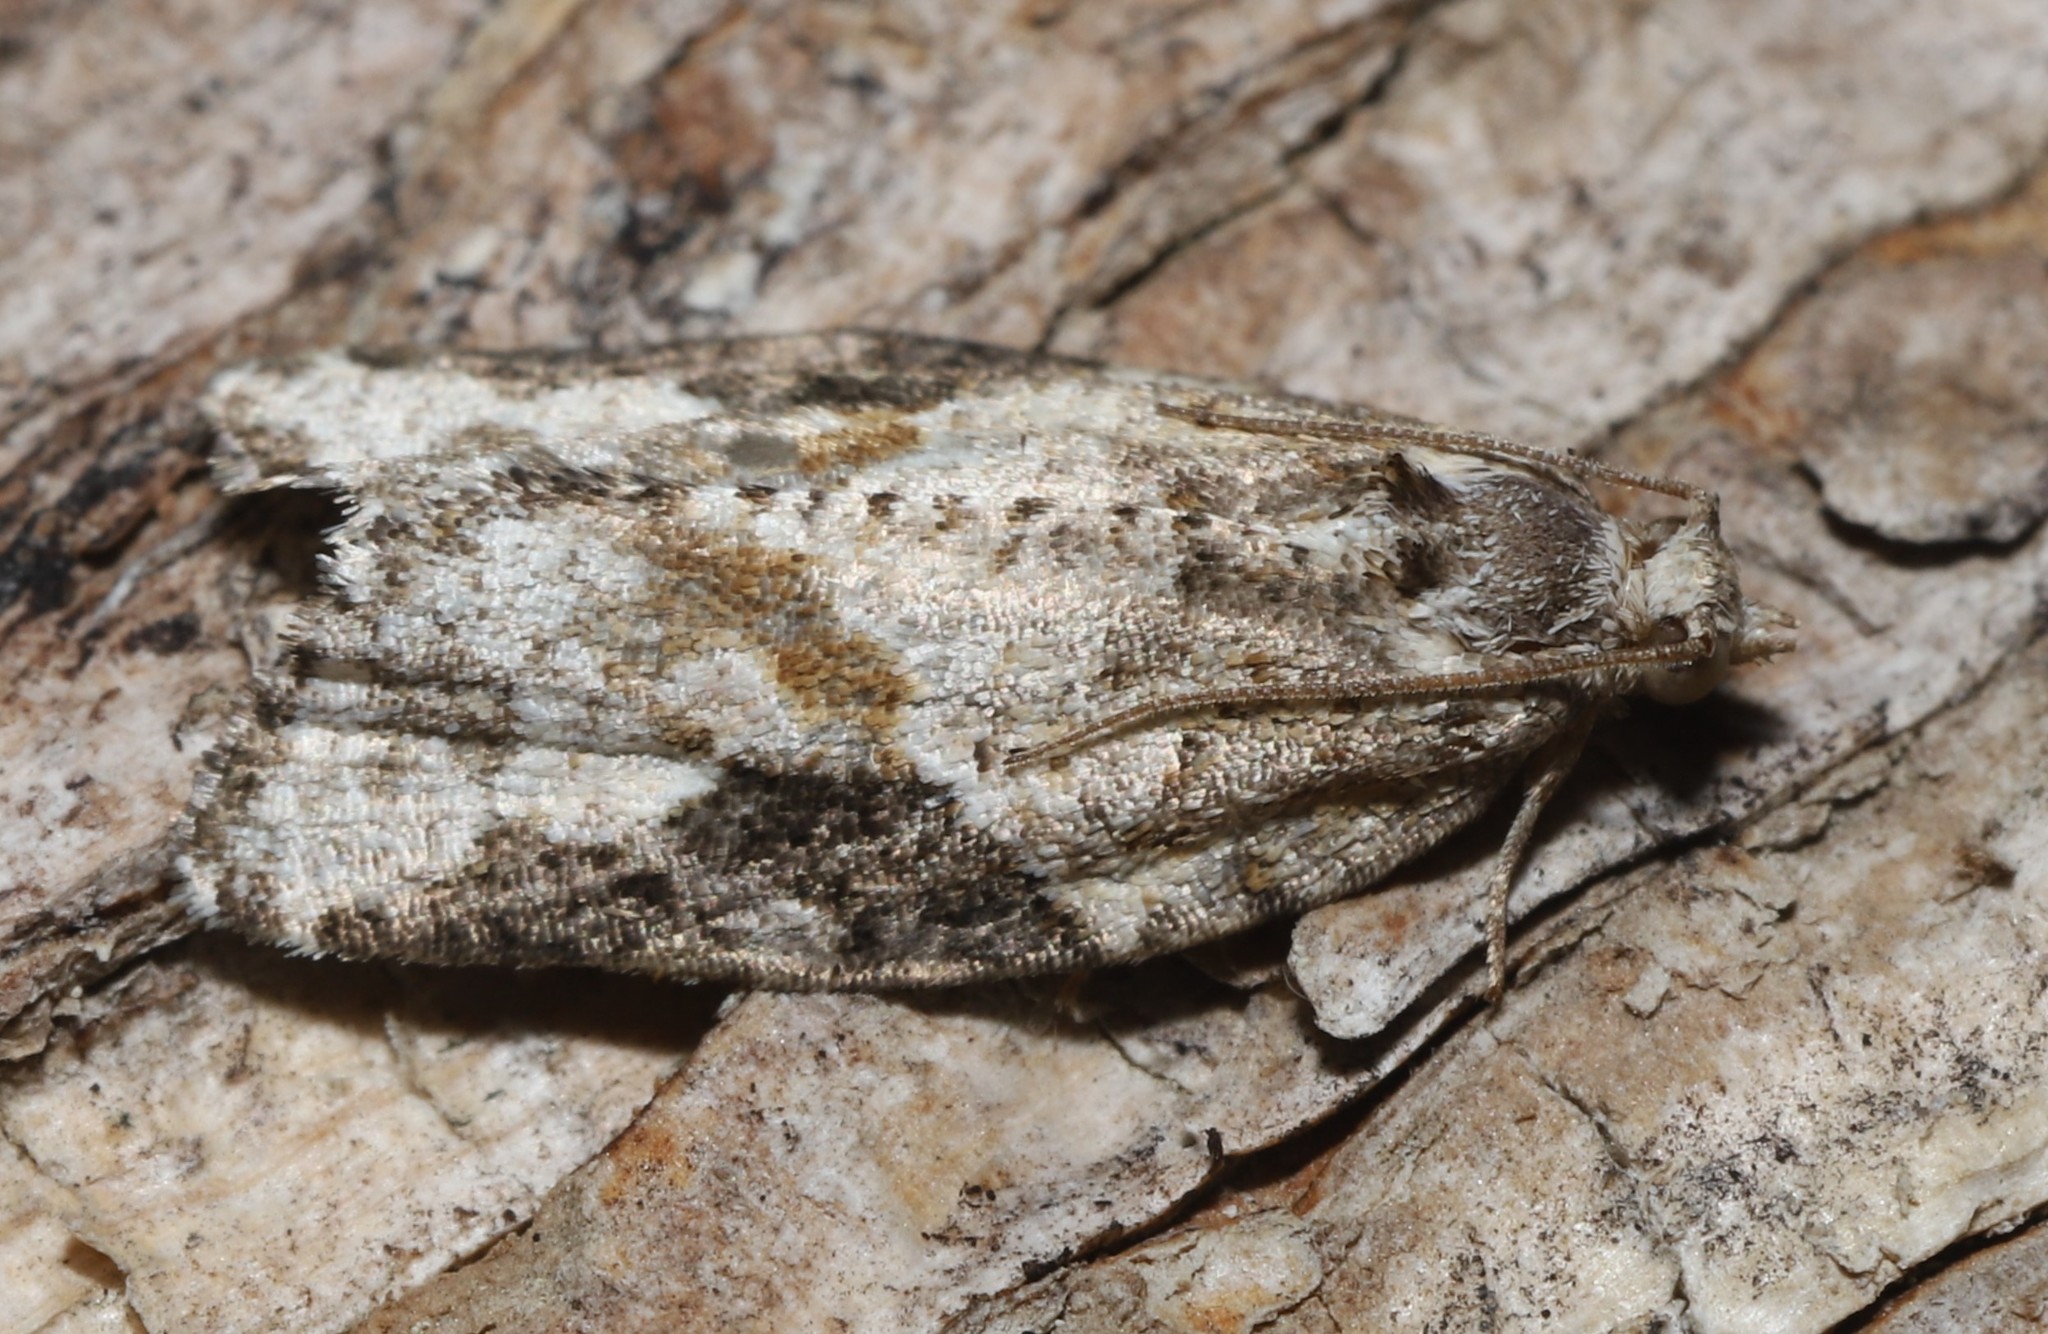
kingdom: Animalia
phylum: Arthropoda
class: Insecta
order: Lepidoptera
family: Tortricidae
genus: Argyrotaenia
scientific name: Argyrotaenia mariana
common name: Gray-banded leafroller moth
